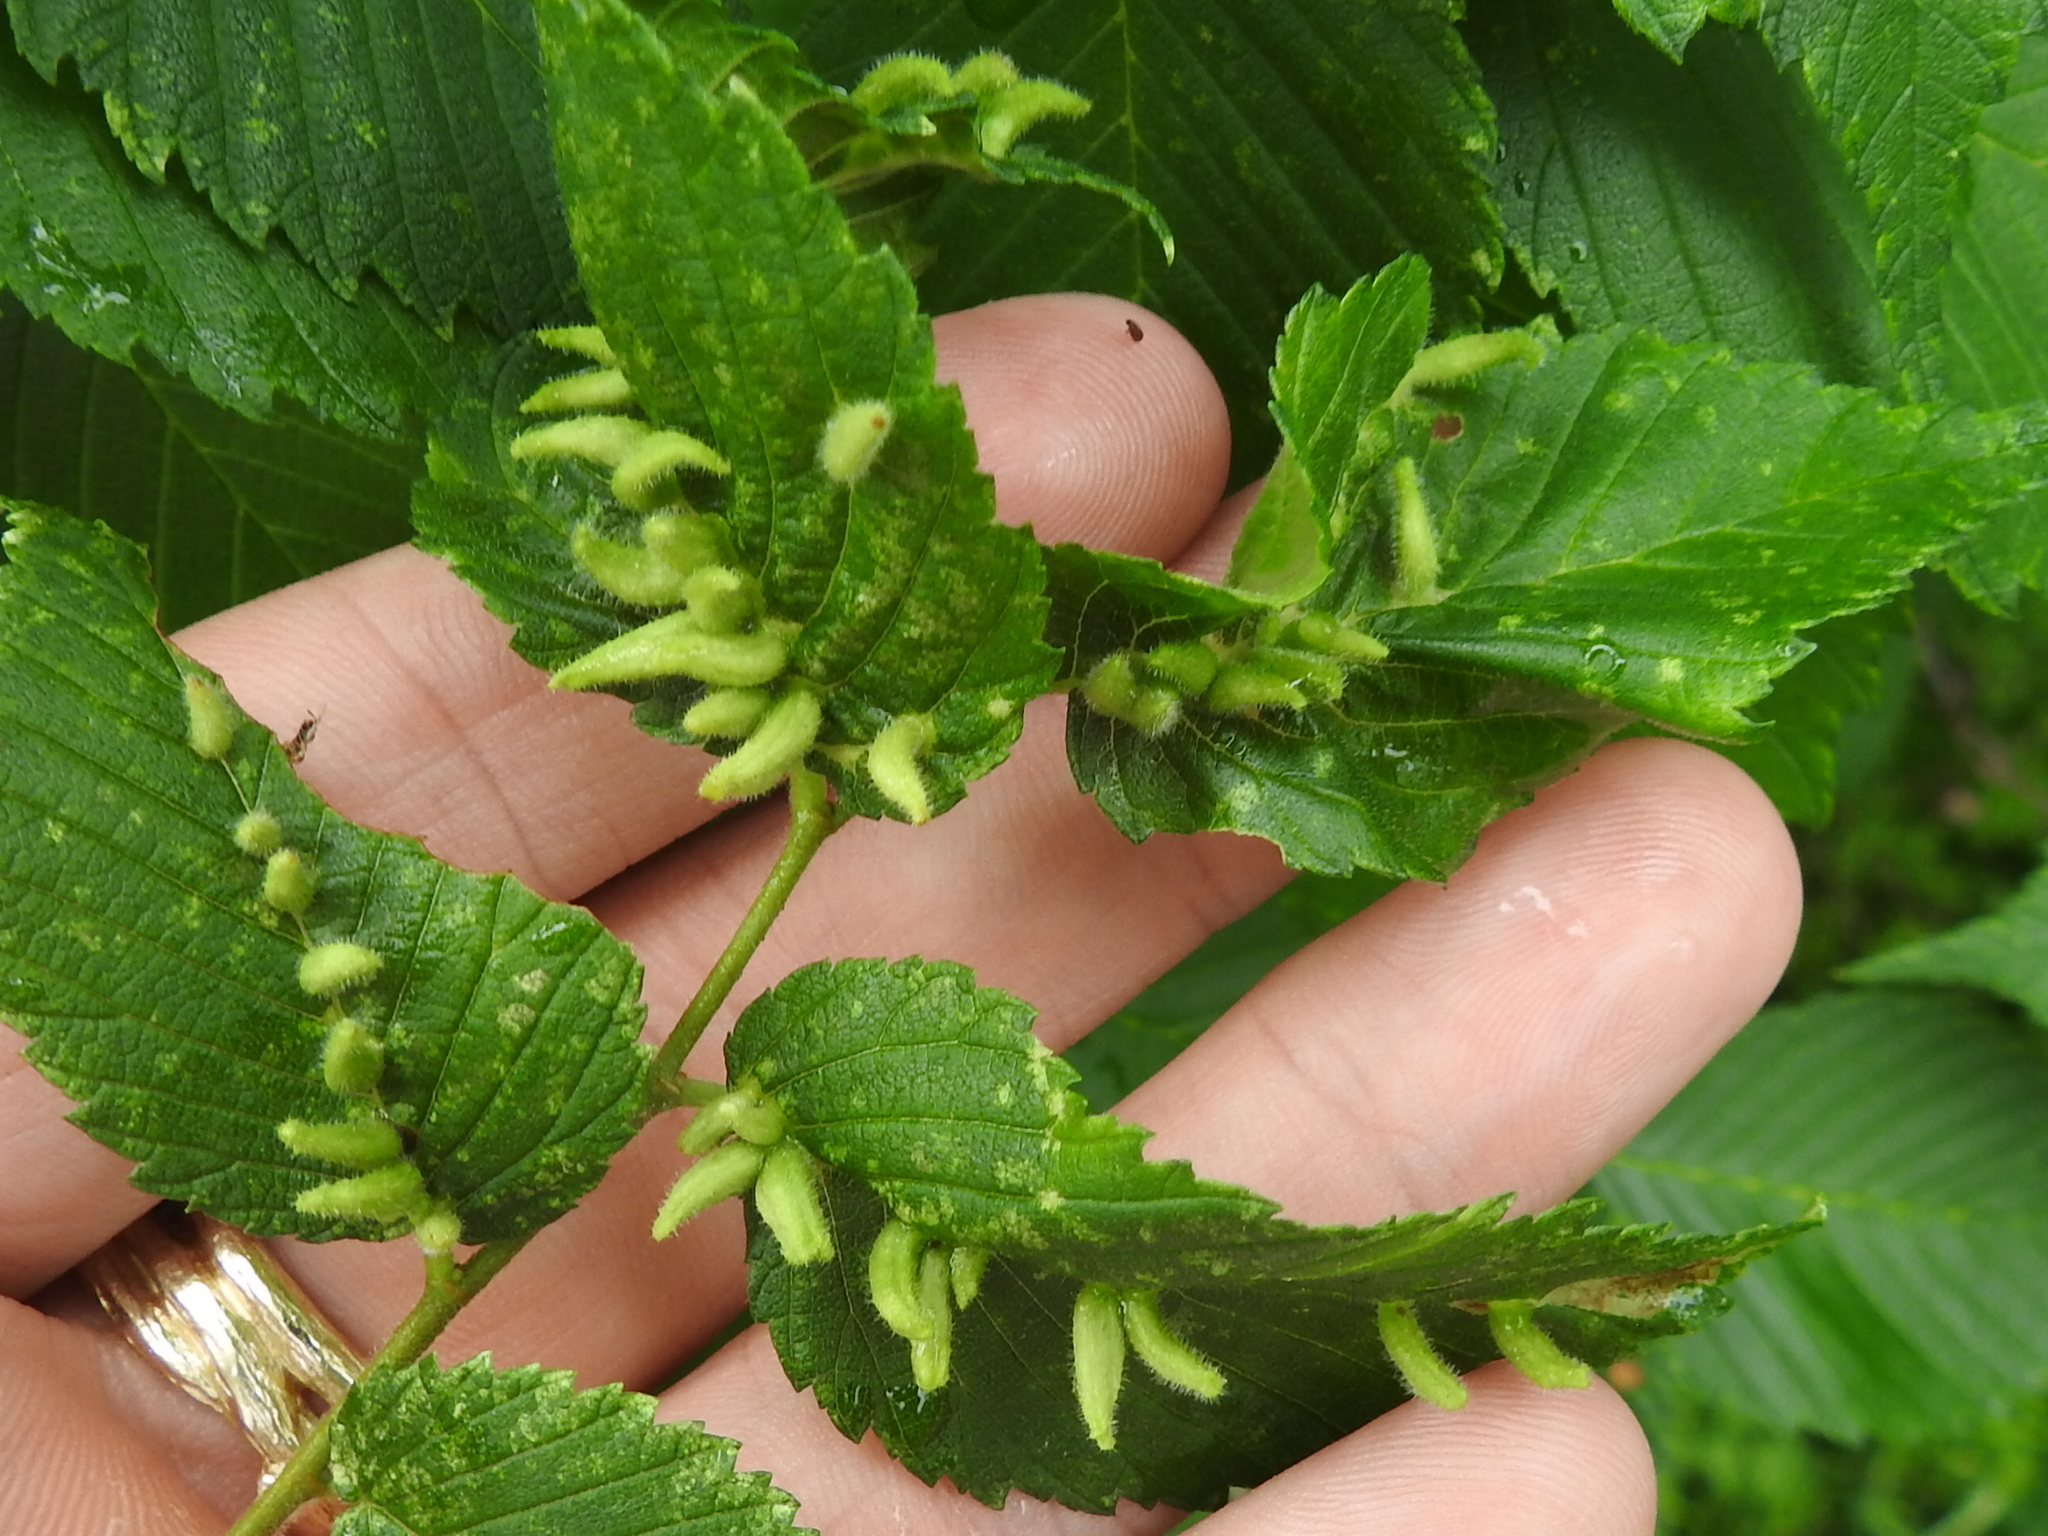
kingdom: Animalia
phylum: Arthropoda
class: Arachnida
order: Trombidiformes
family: Eriophyidae
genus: Aceria
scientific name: Aceria
